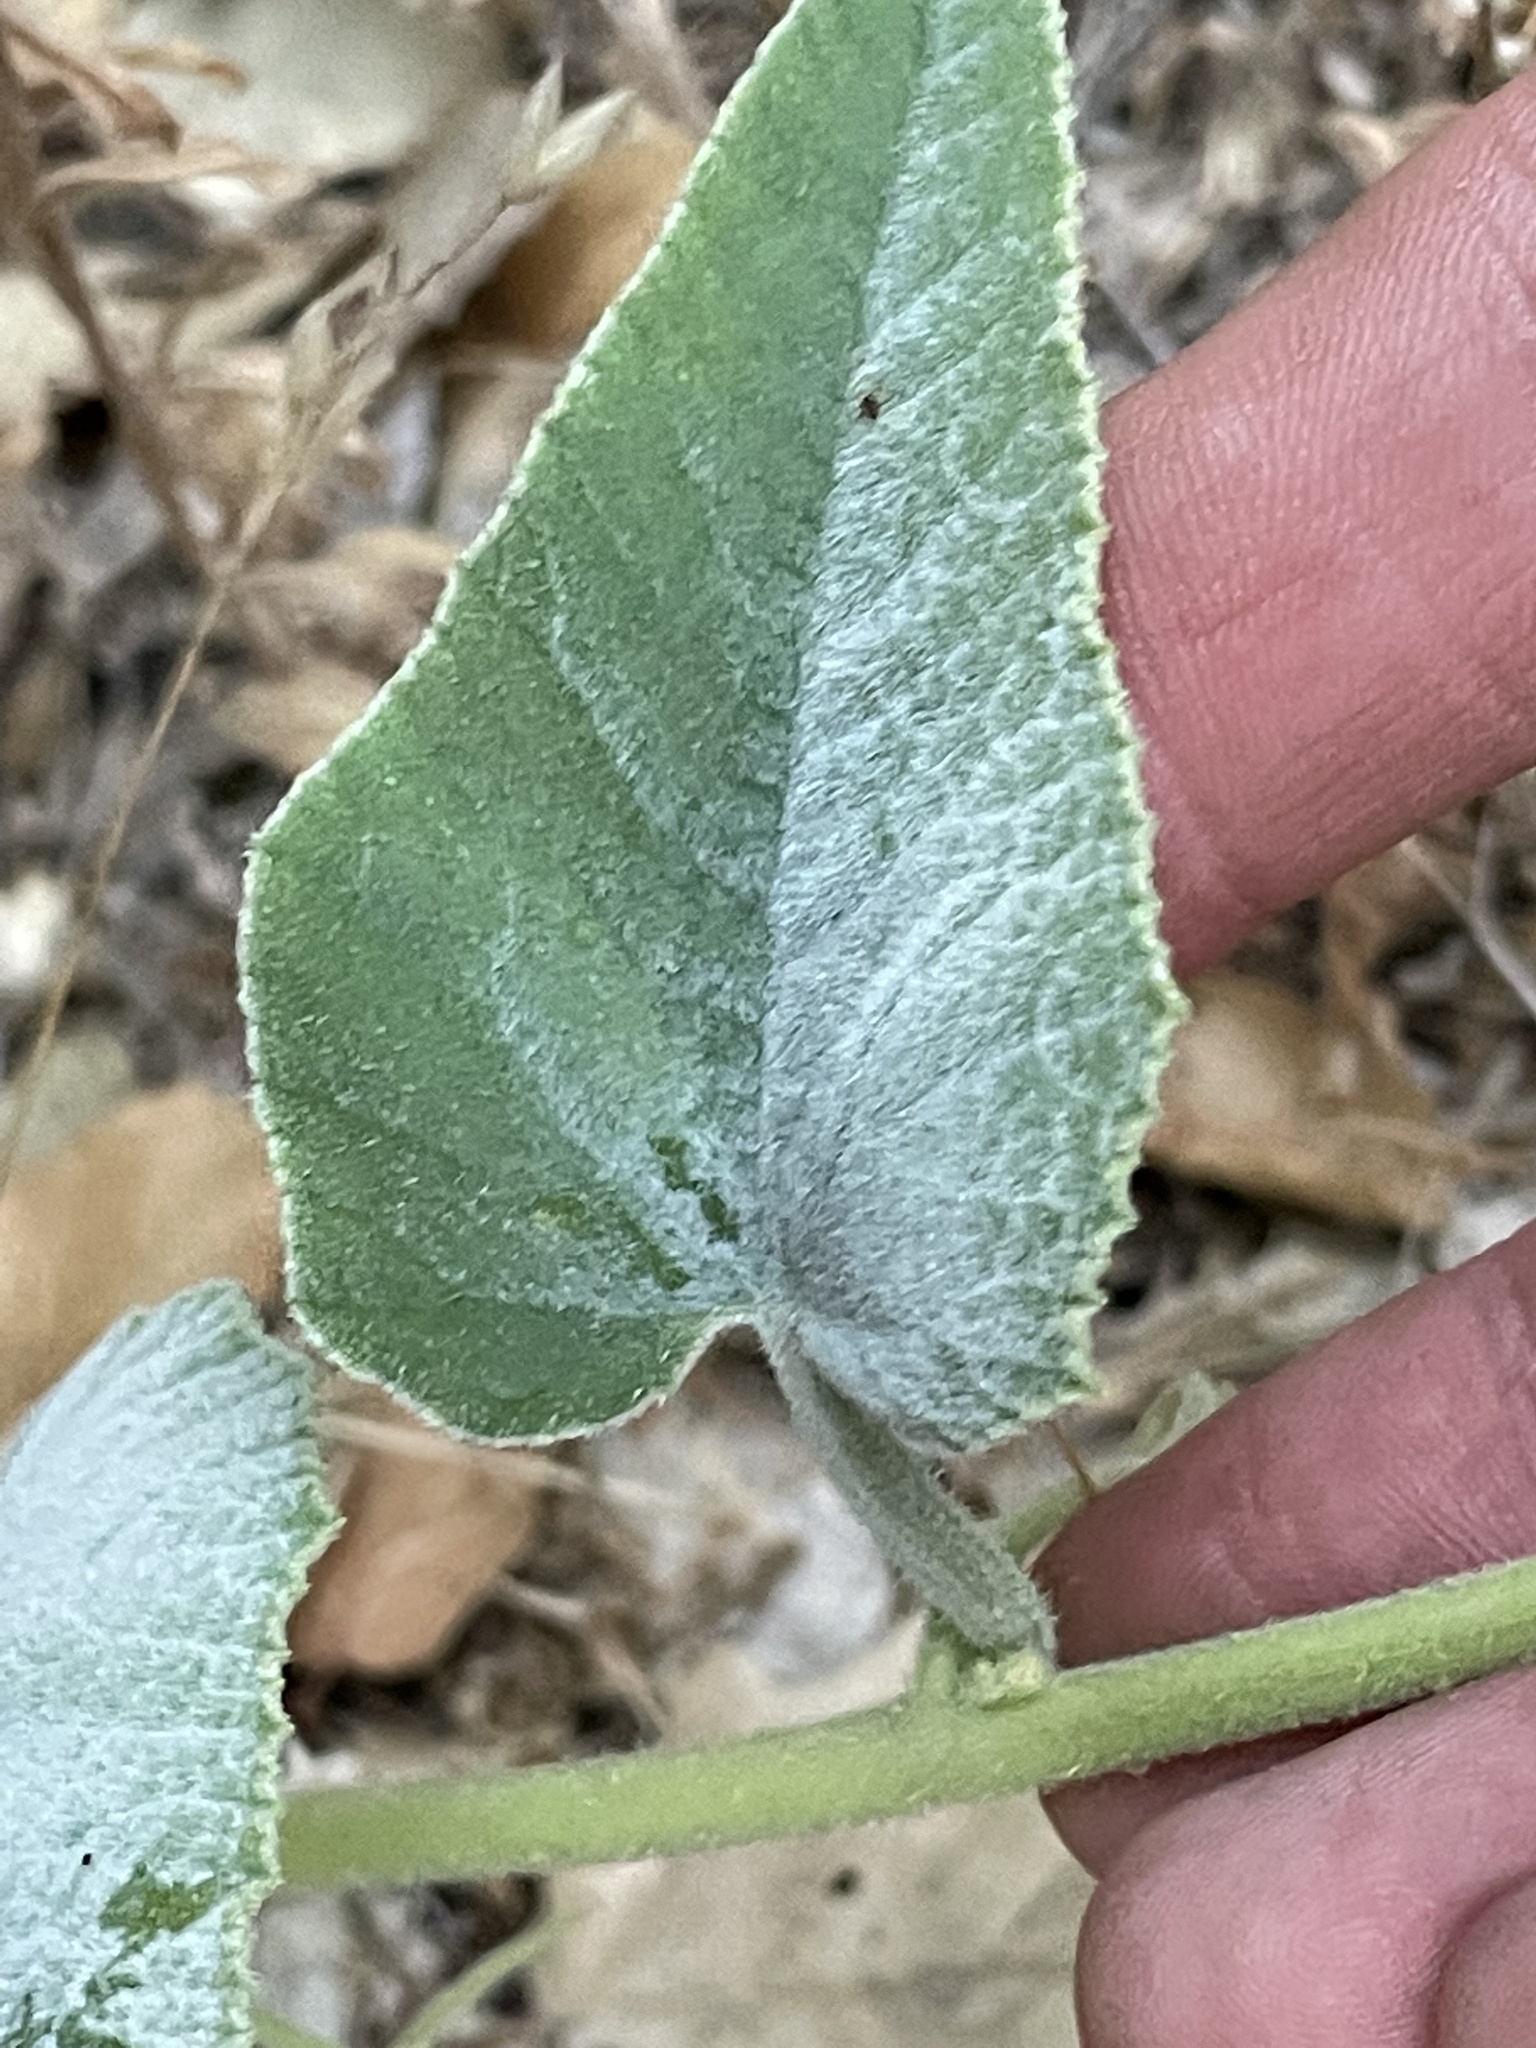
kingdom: Plantae
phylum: Tracheophyta
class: Magnoliopsida
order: Cucurbitales
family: Cucurbitaceae
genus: Cucurbita
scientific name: Cucurbita foetidissima
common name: Buffalo gourd
